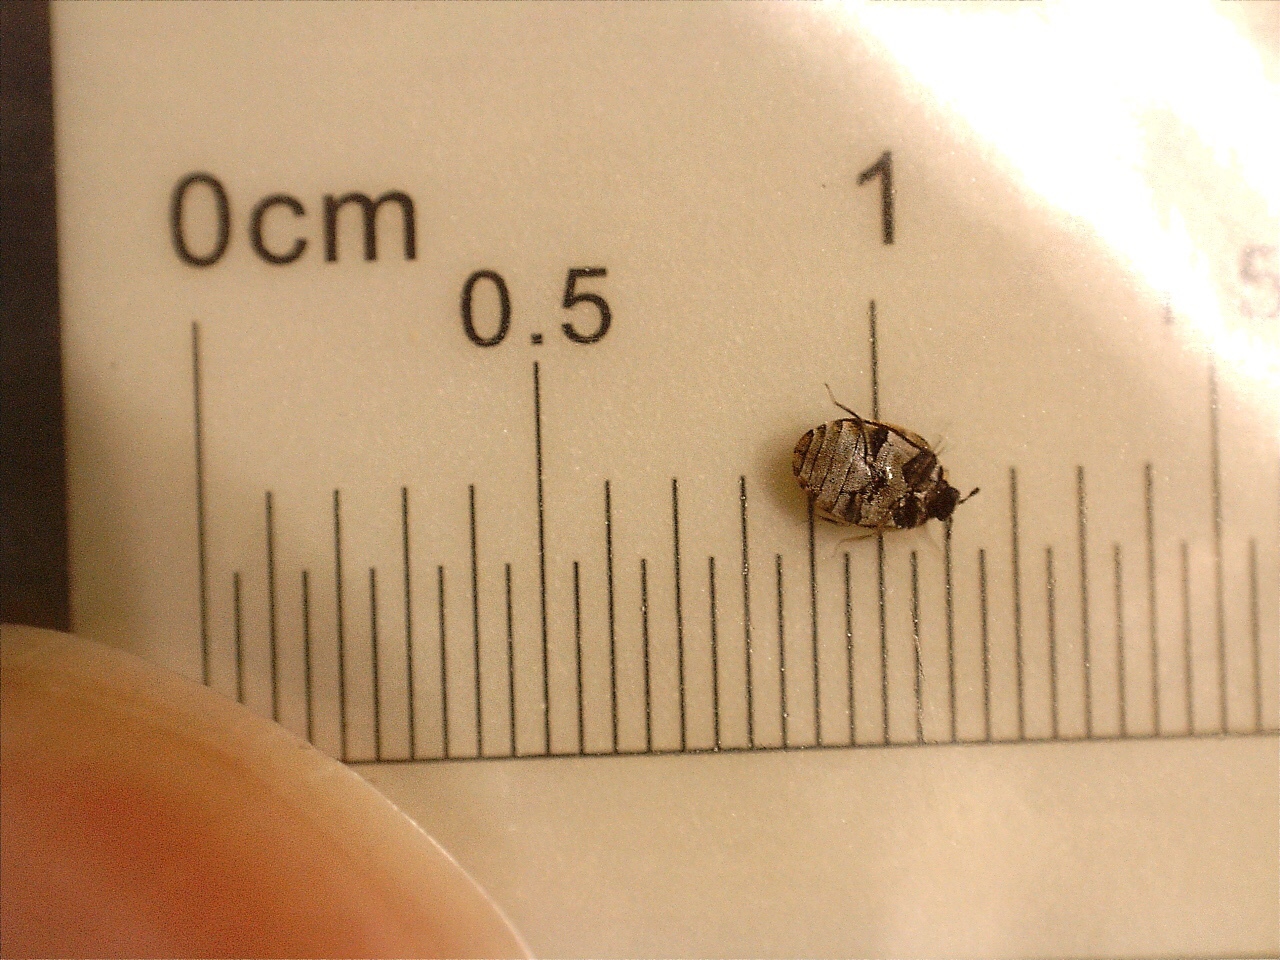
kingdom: Animalia
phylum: Arthropoda
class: Insecta
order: Coleoptera
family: Dermestidae
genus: Anthrenus
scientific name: Anthrenus verbasci
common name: Varied carpet beetle
